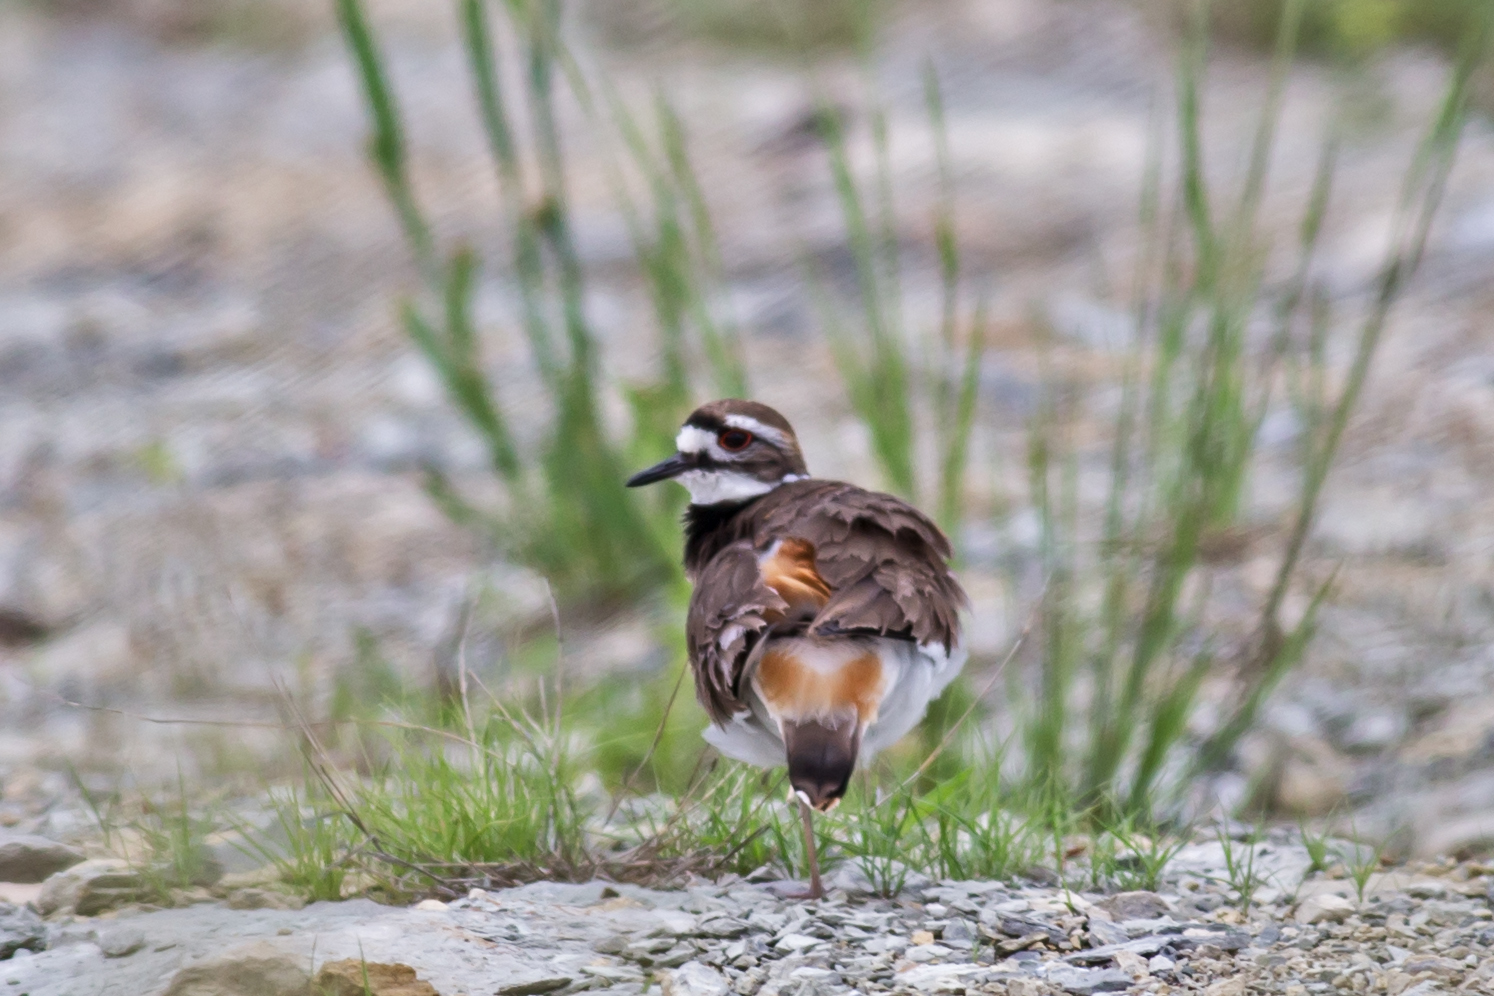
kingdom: Animalia
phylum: Chordata
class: Aves
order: Charadriiformes
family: Charadriidae
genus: Charadrius
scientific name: Charadrius vociferus
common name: Killdeer
